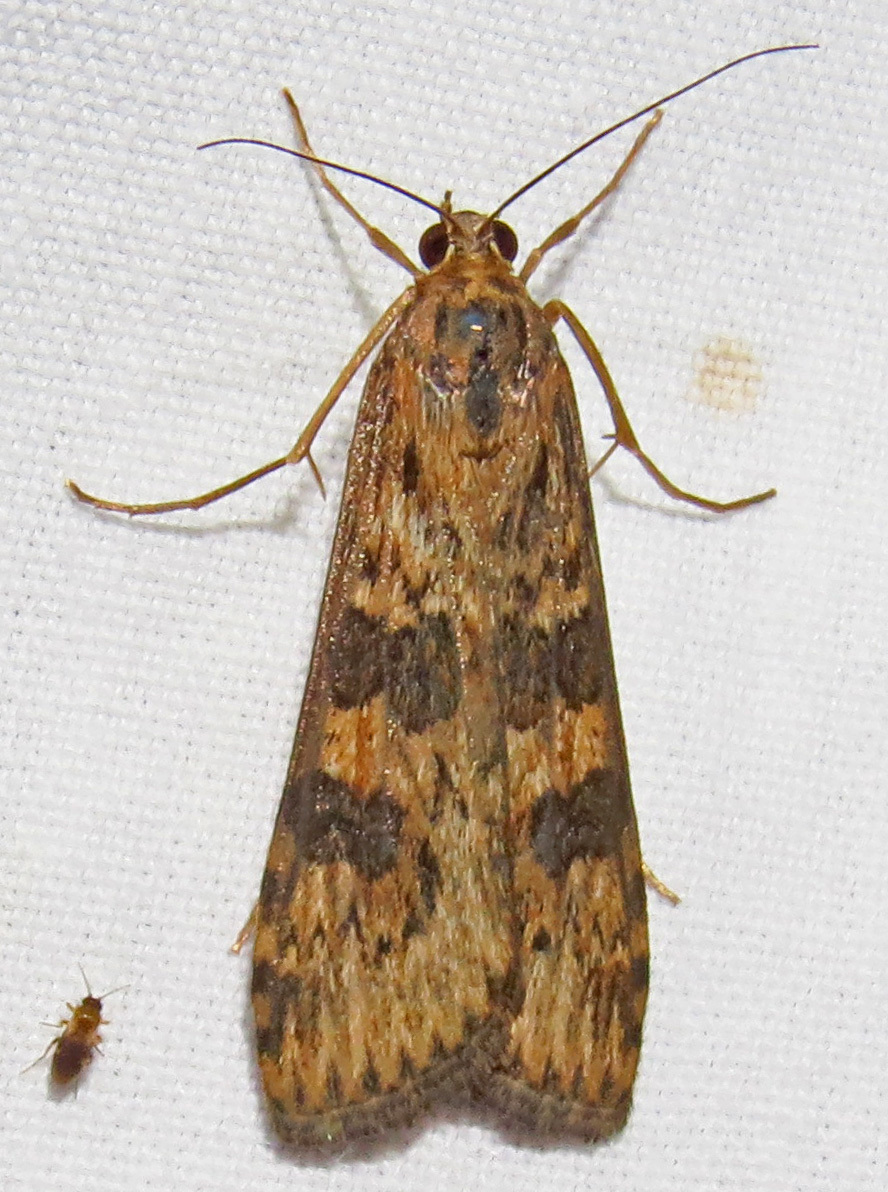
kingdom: Animalia
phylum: Arthropoda
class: Insecta
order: Lepidoptera
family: Crambidae
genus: Nomophila
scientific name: Nomophila nearctica
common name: American rush veneer
